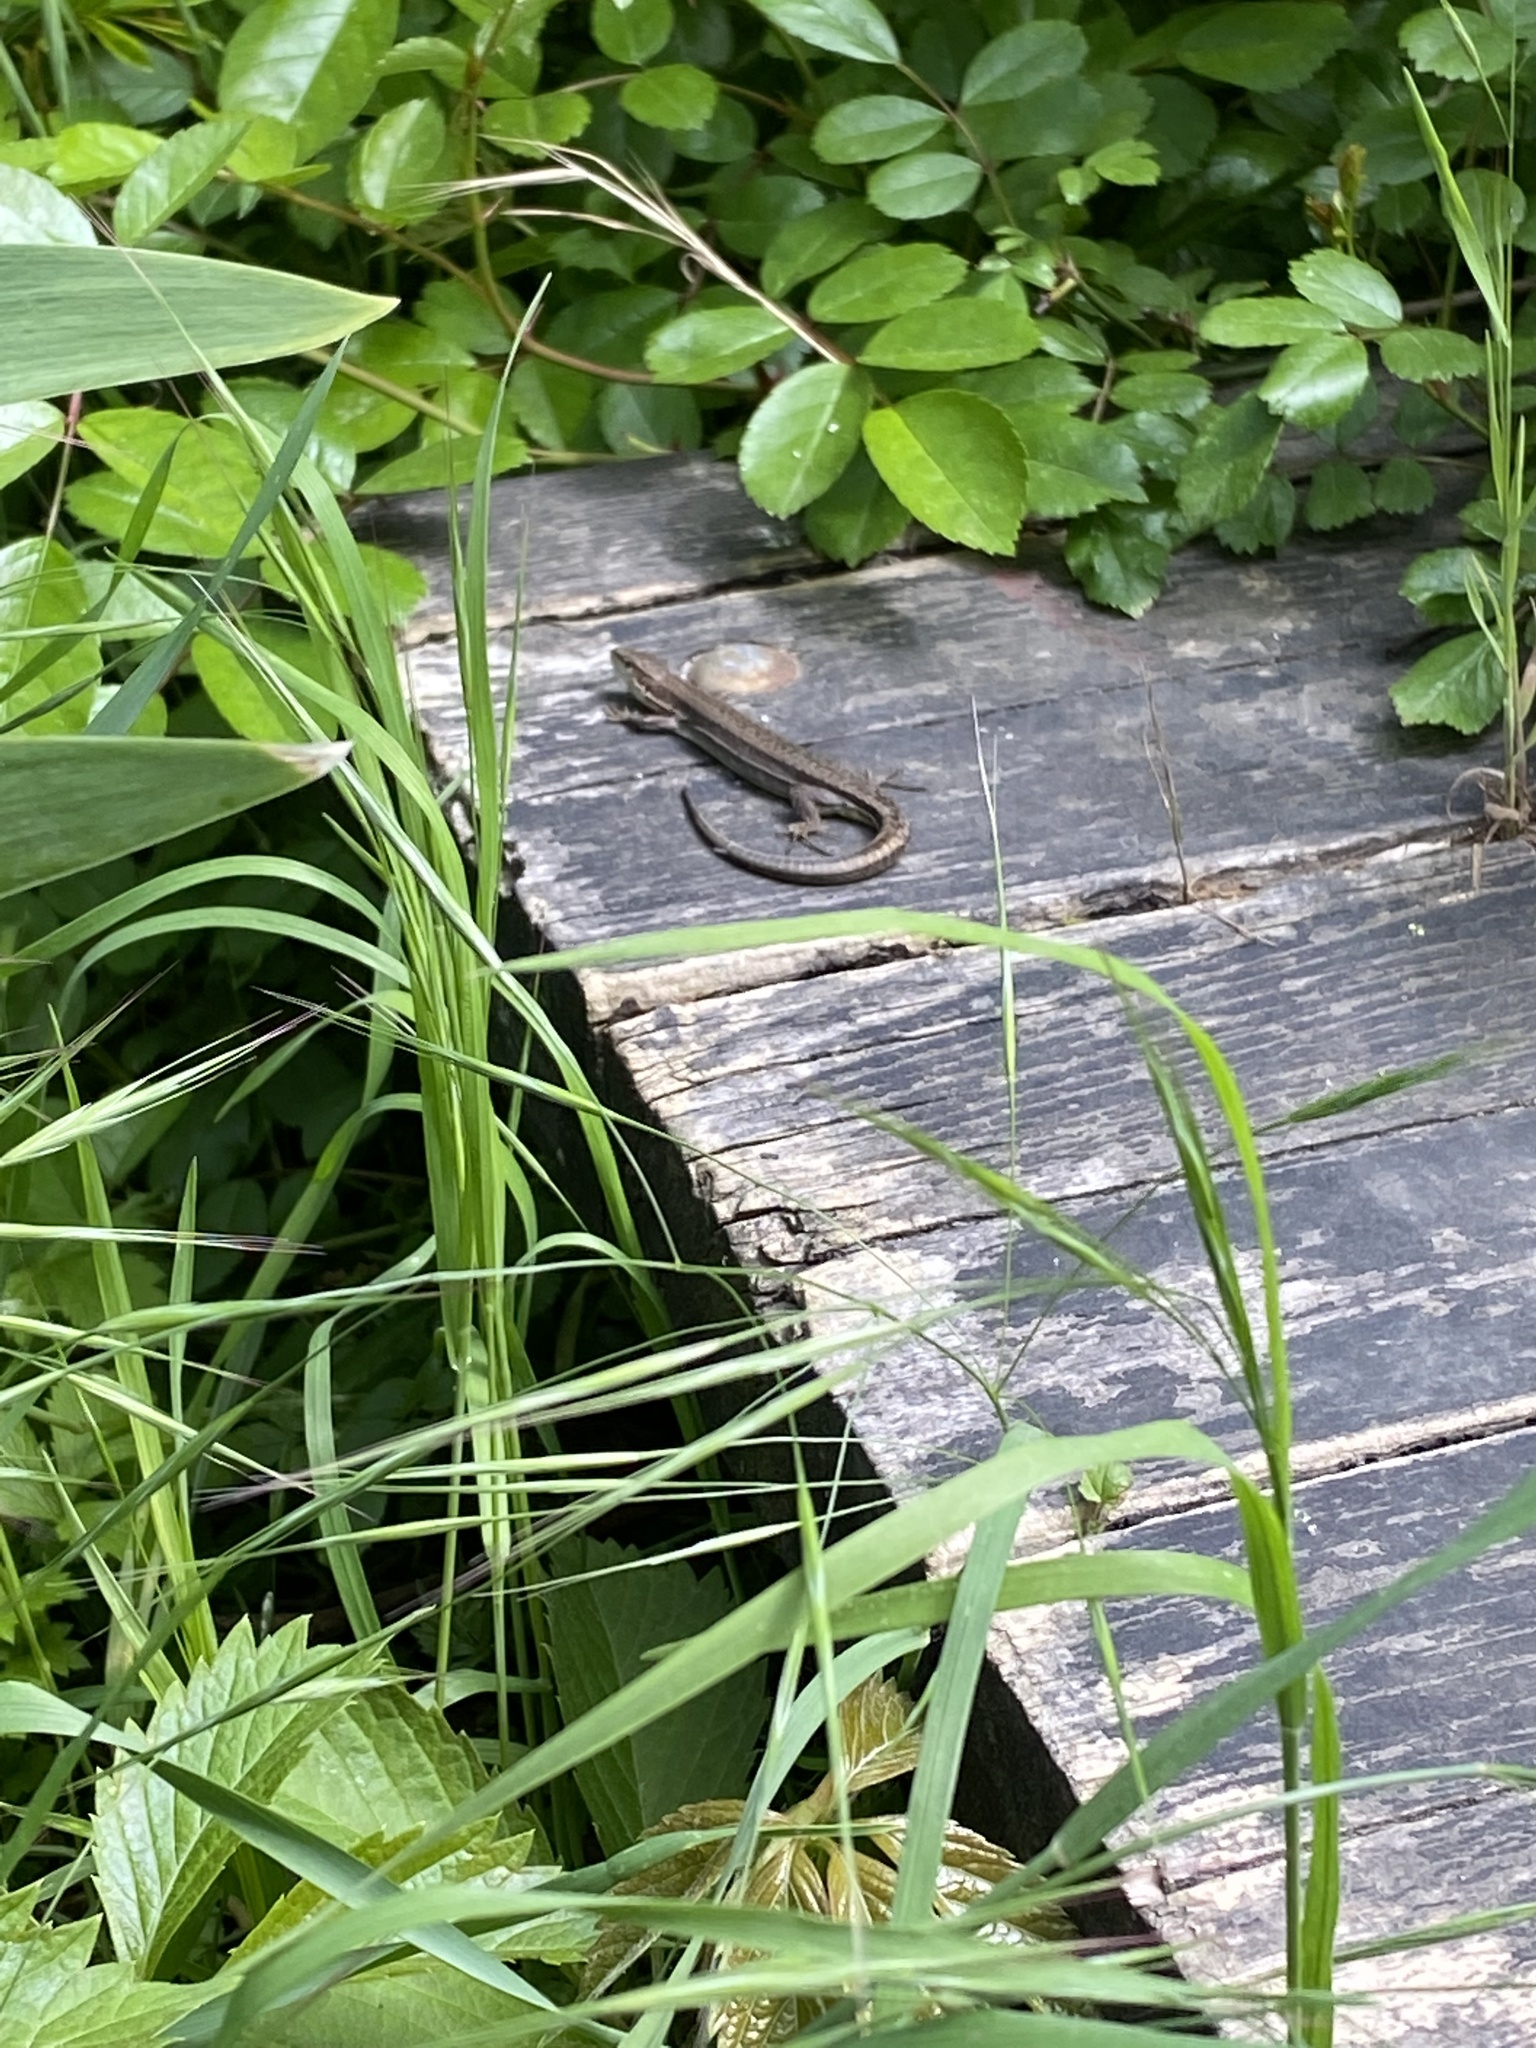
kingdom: Animalia
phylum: Chordata
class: Squamata
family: Lacertidae
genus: Darevskia
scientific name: Darevskia praticola
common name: Meadow lizard
